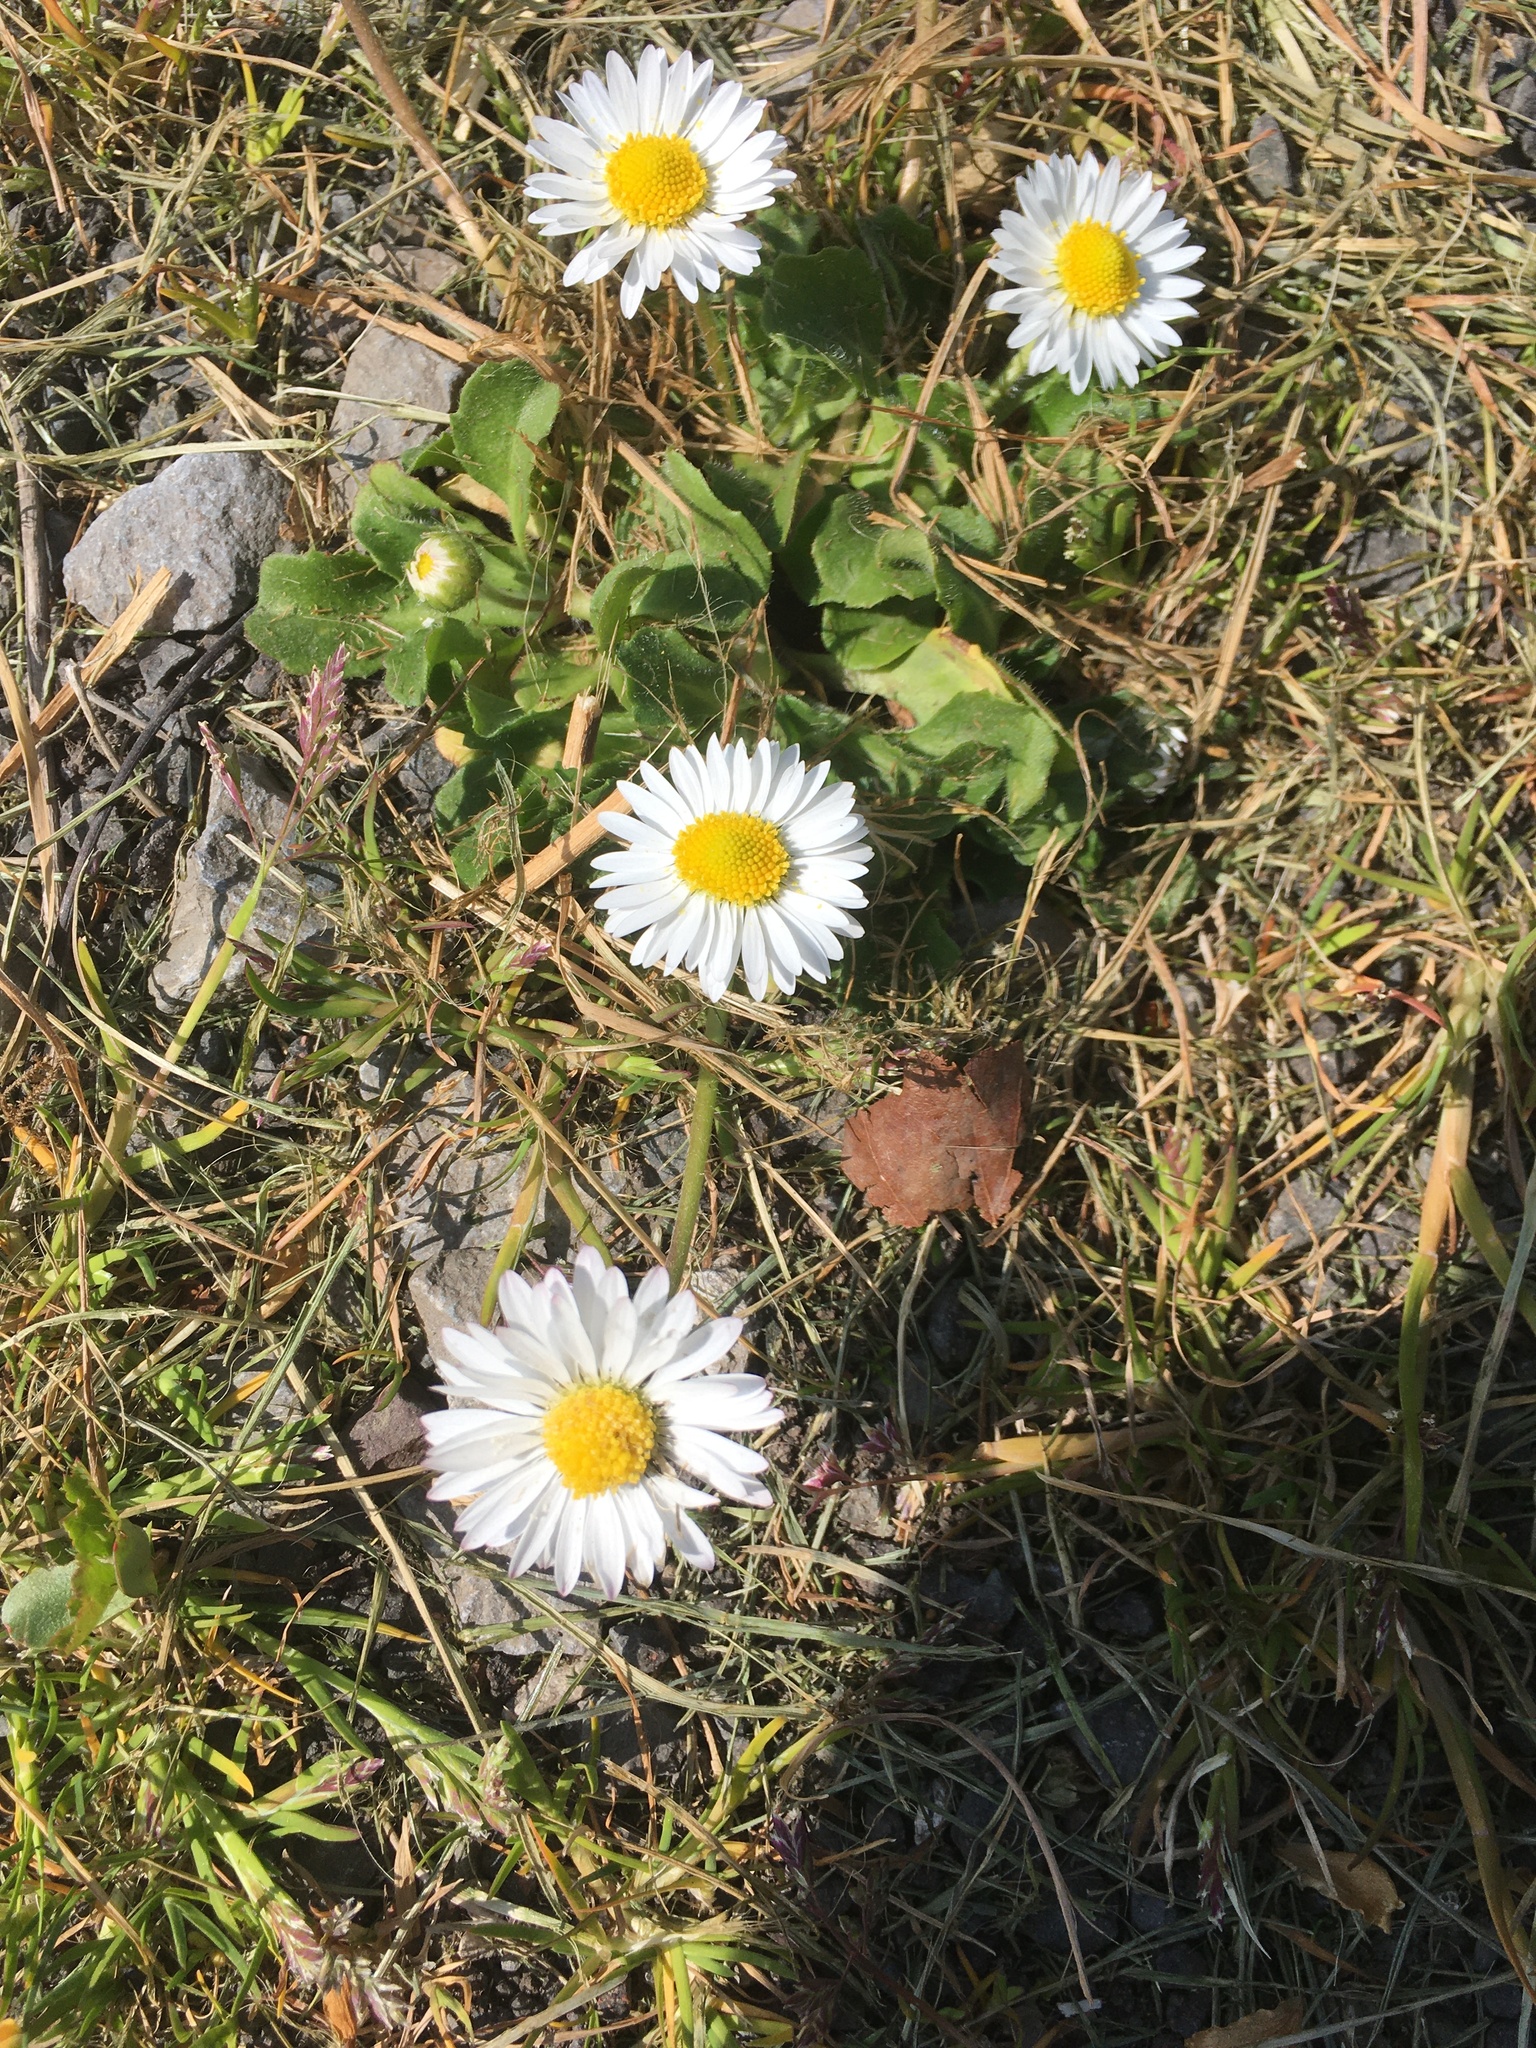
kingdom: Plantae
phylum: Tracheophyta
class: Magnoliopsida
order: Asterales
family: Asteraceae
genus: Bellis
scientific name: Bellis perennis
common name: Lawndaisy
